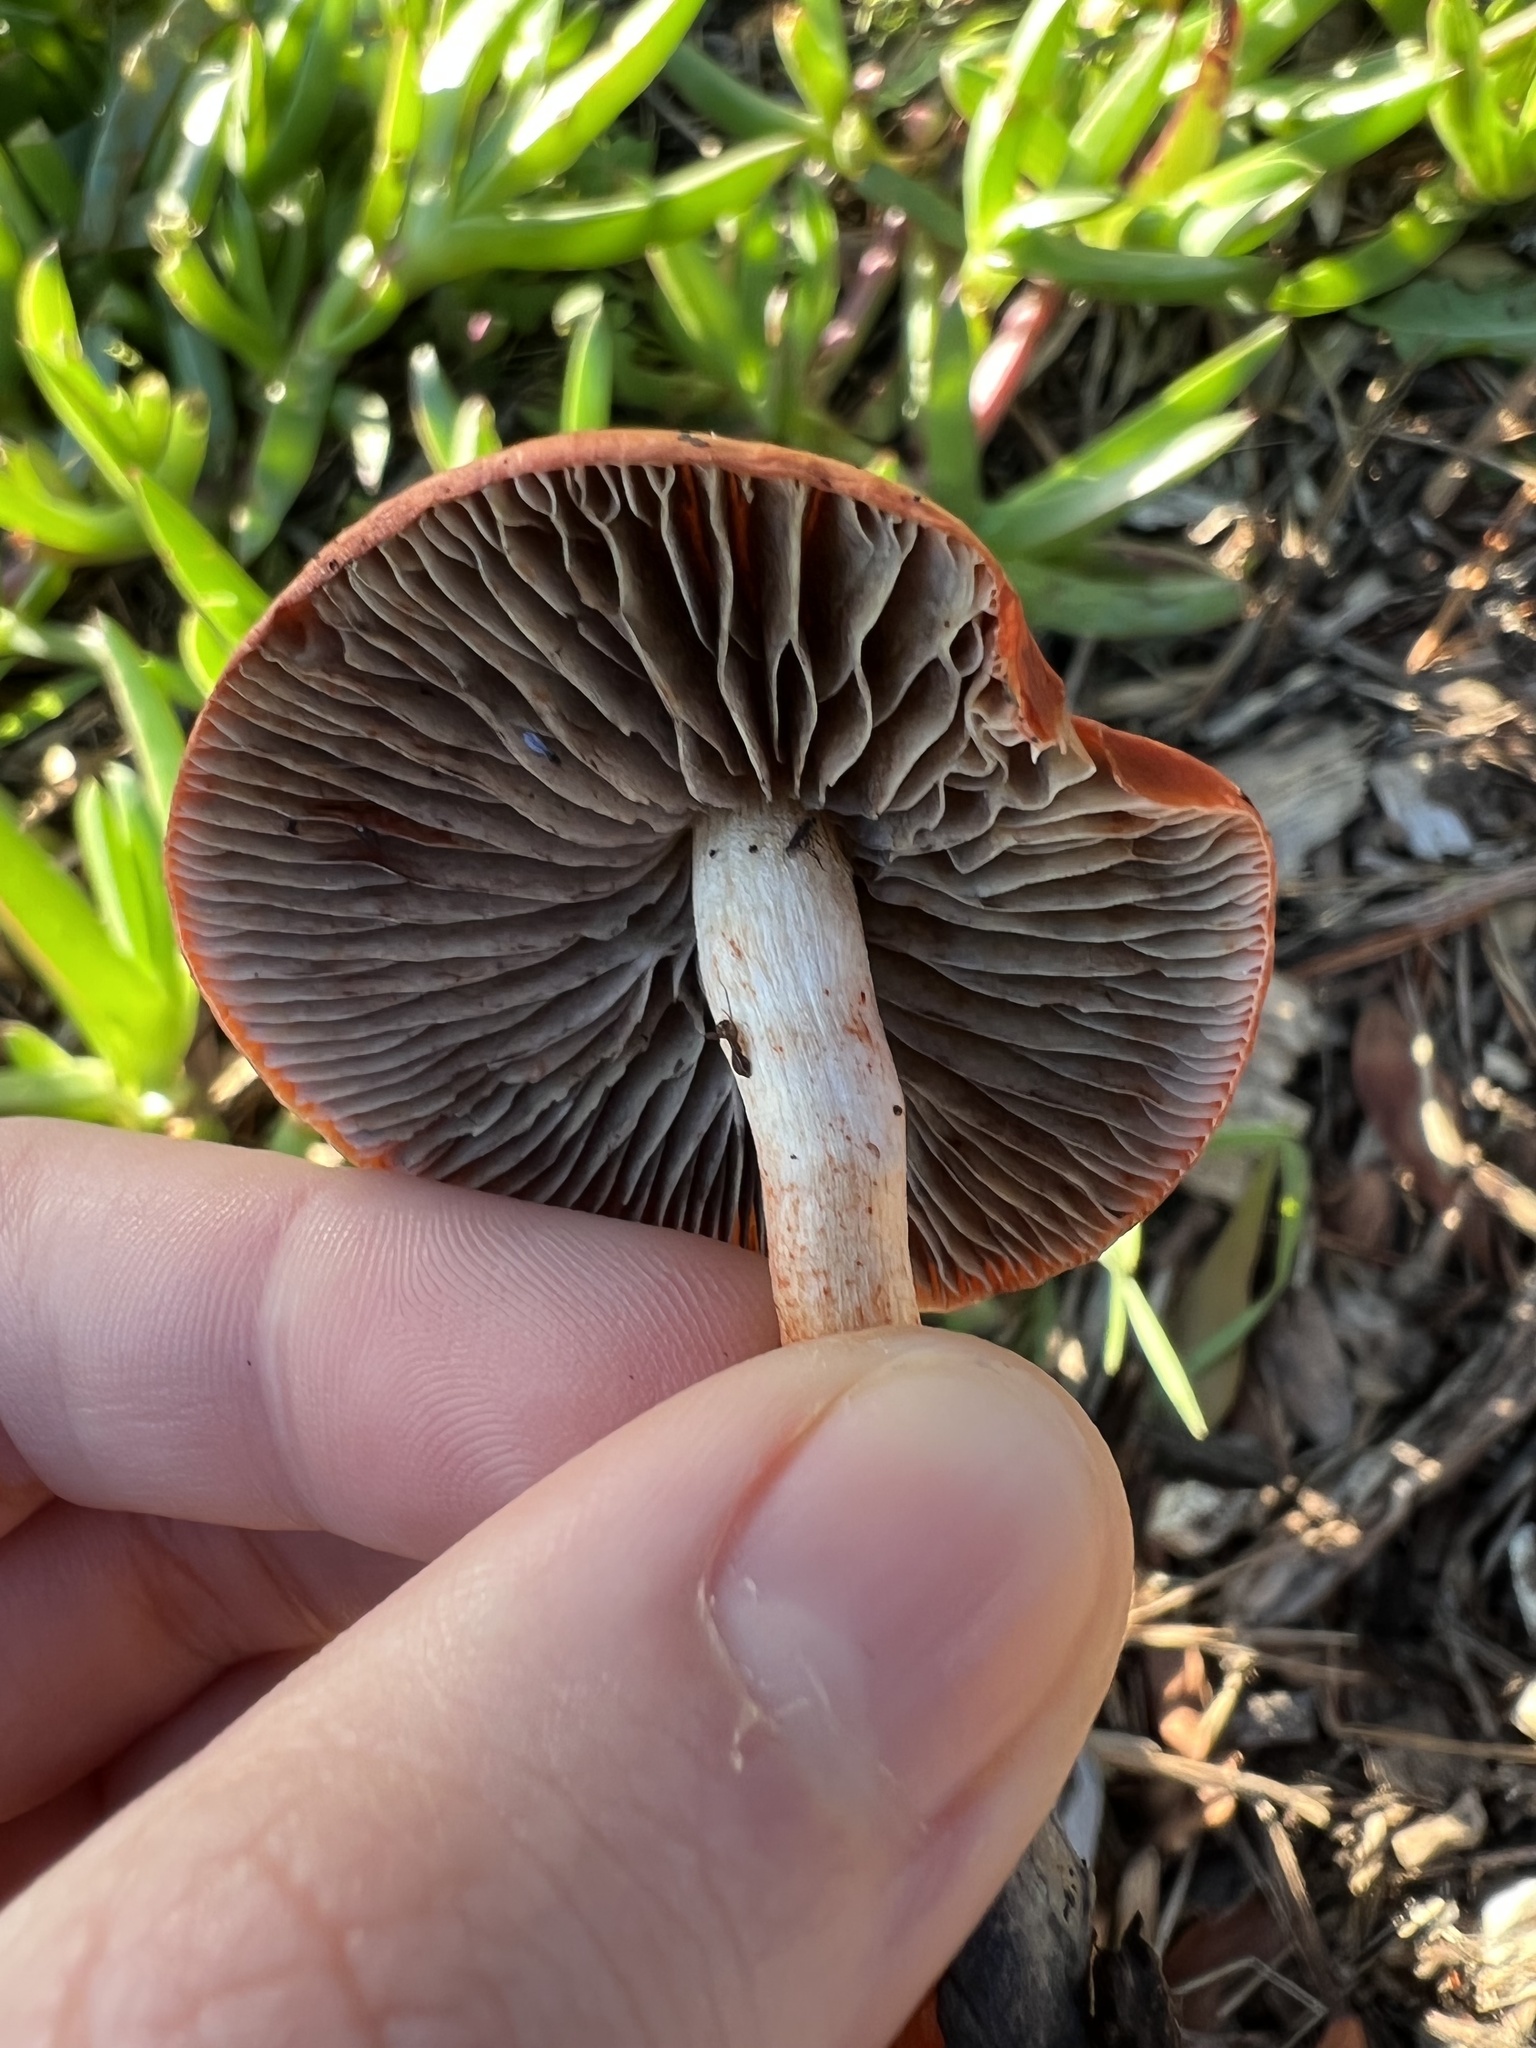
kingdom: Fungi
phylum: Basidiomycota
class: Agaricomycetes
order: Agaricales
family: Strophariaceae
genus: Leratiomyces
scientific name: Leratiomyces ceres
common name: Redlead roundhead
